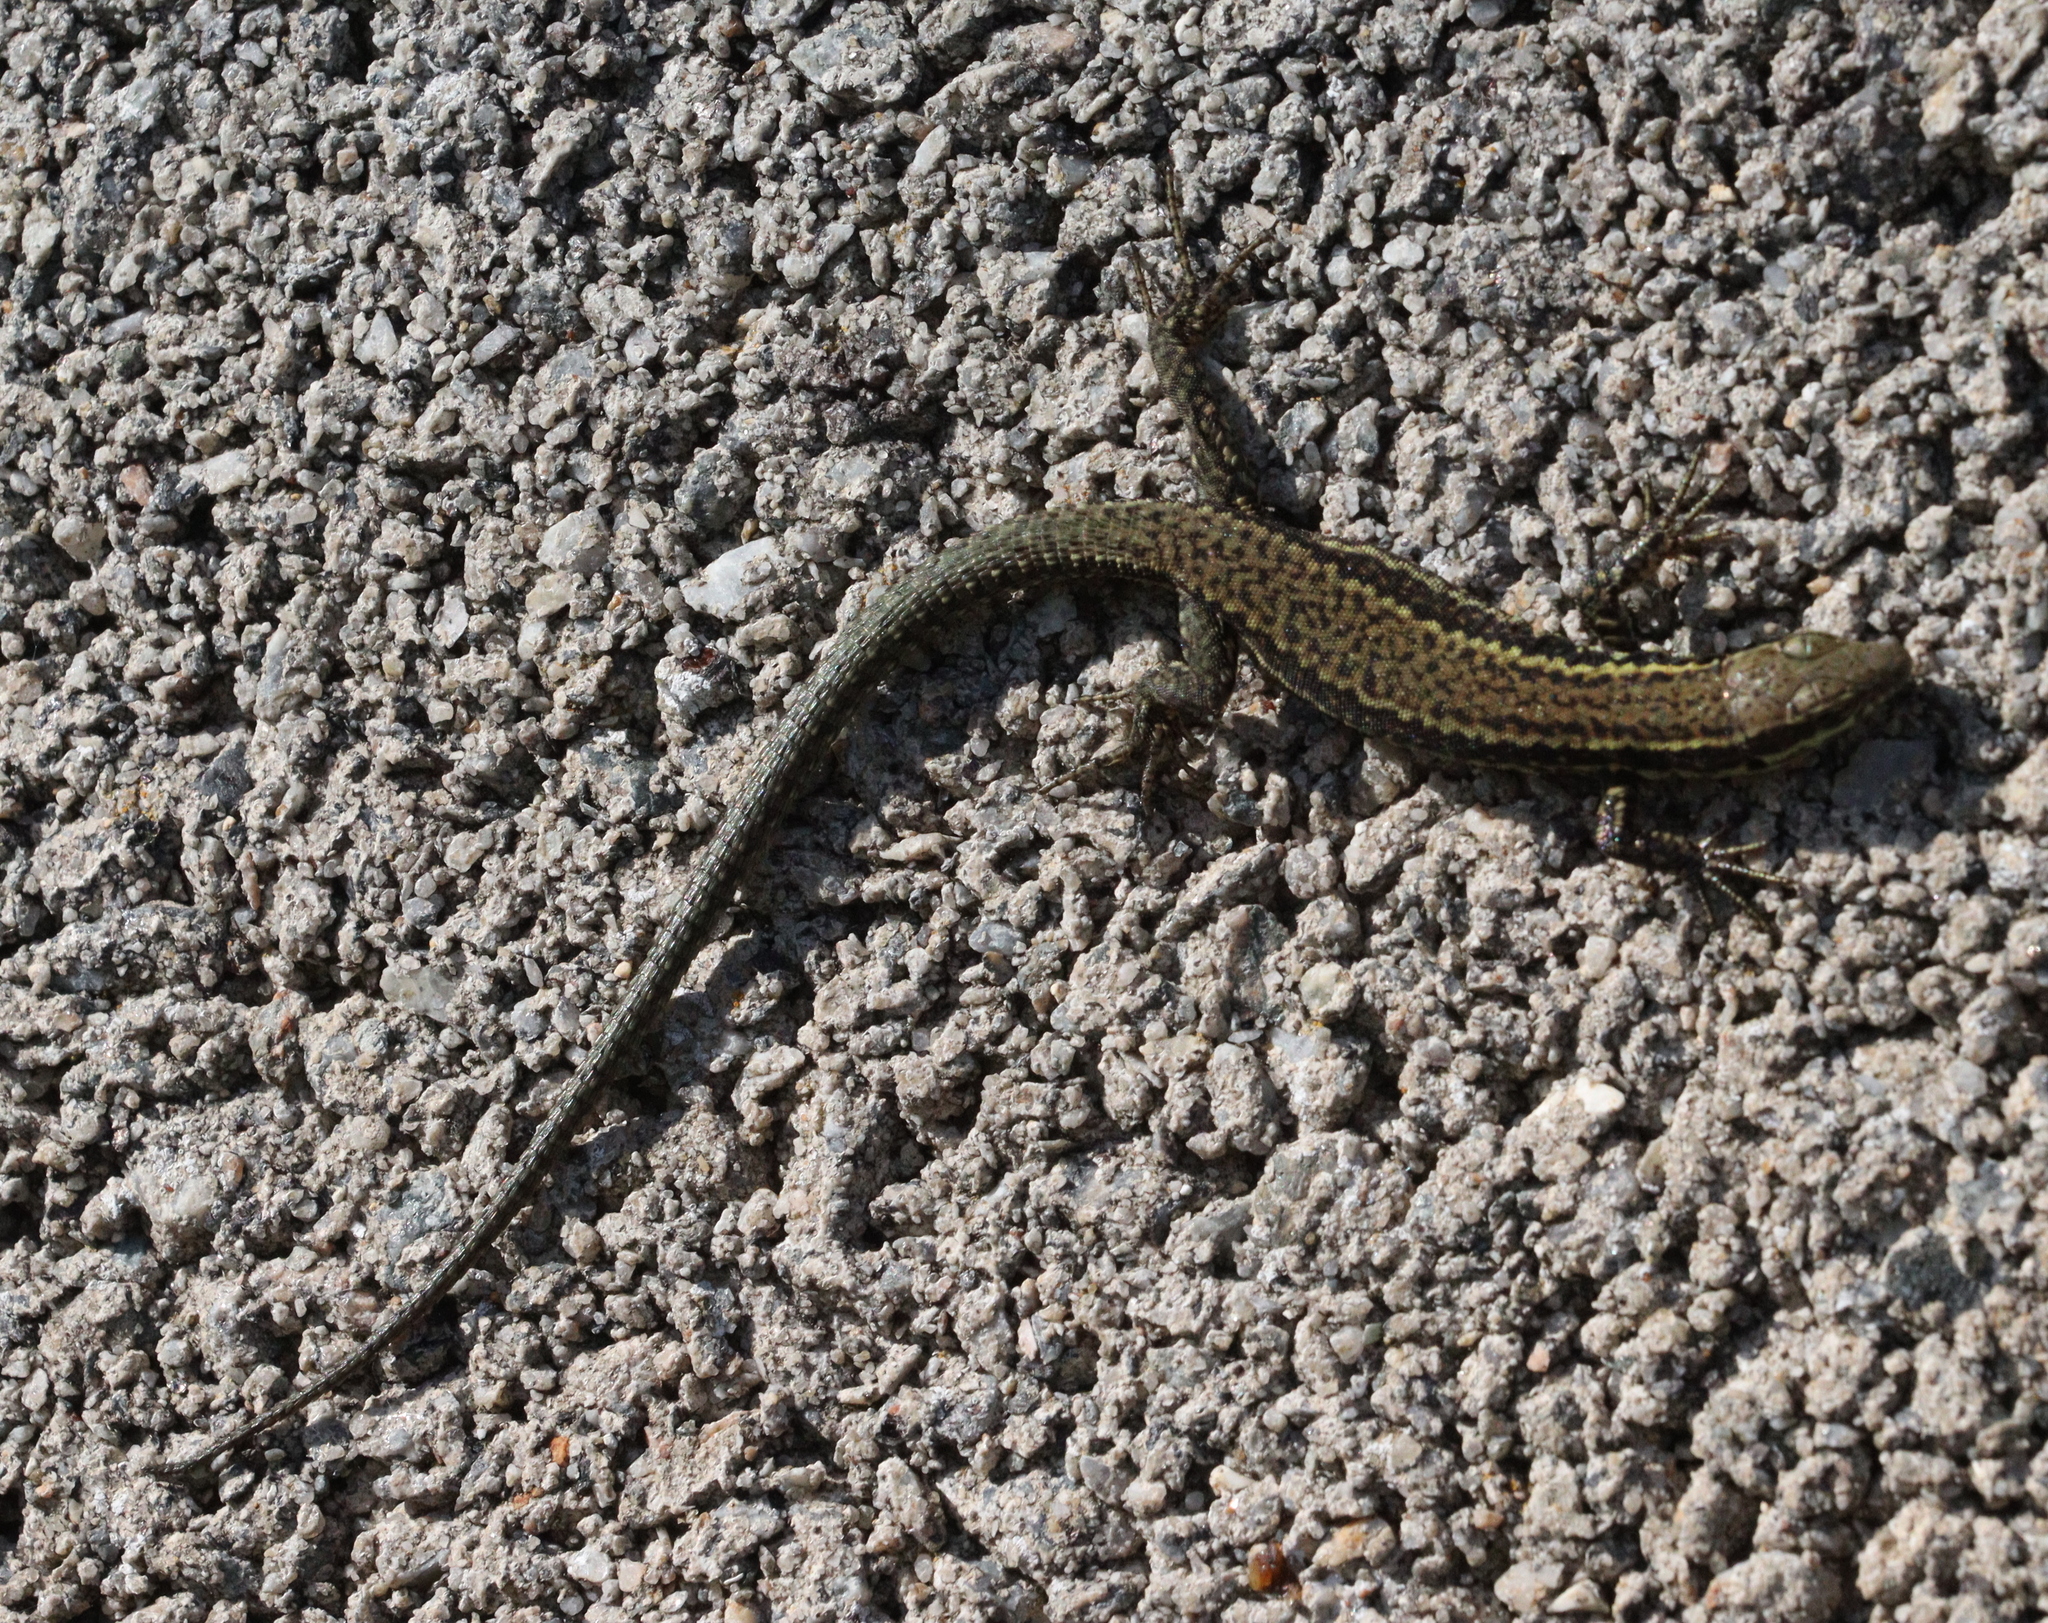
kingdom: Animalia
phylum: Chordata
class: Squamata
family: Lacertidae
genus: Podarcis
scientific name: Podarcis muralis
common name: Common wall lizard
